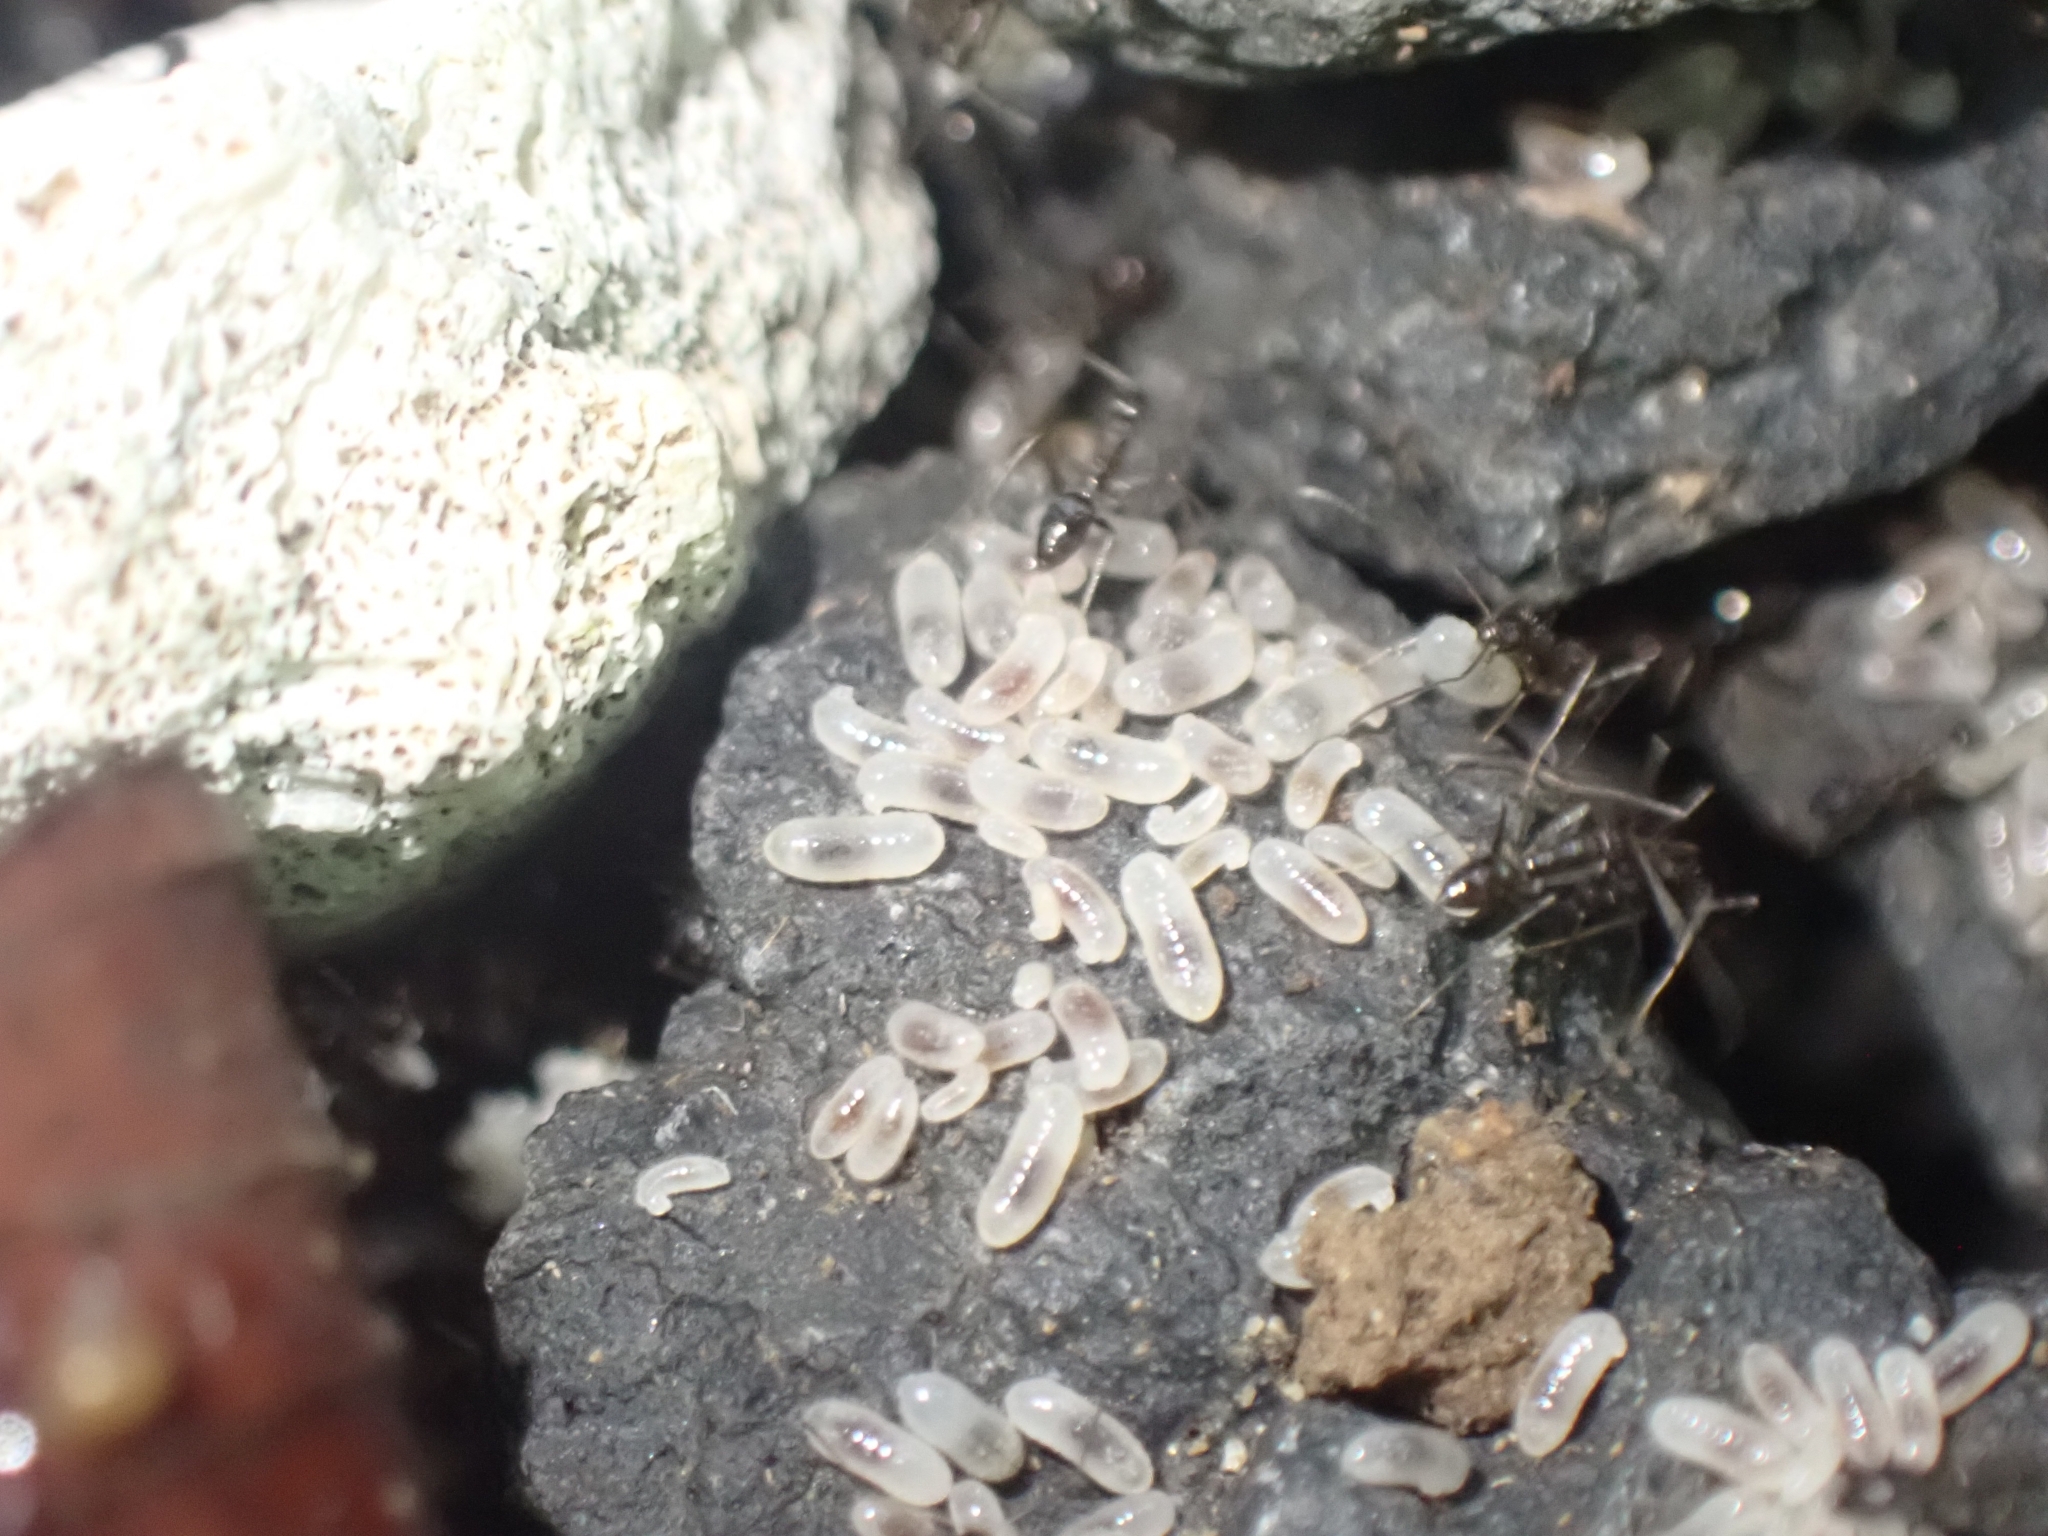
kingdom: Animalia
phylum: Arthropoda
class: Insecta
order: Hymenoptera
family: Formicidae
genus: Paratrechina
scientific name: Paratrechina longicornis
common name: Longhorned crazy ant
